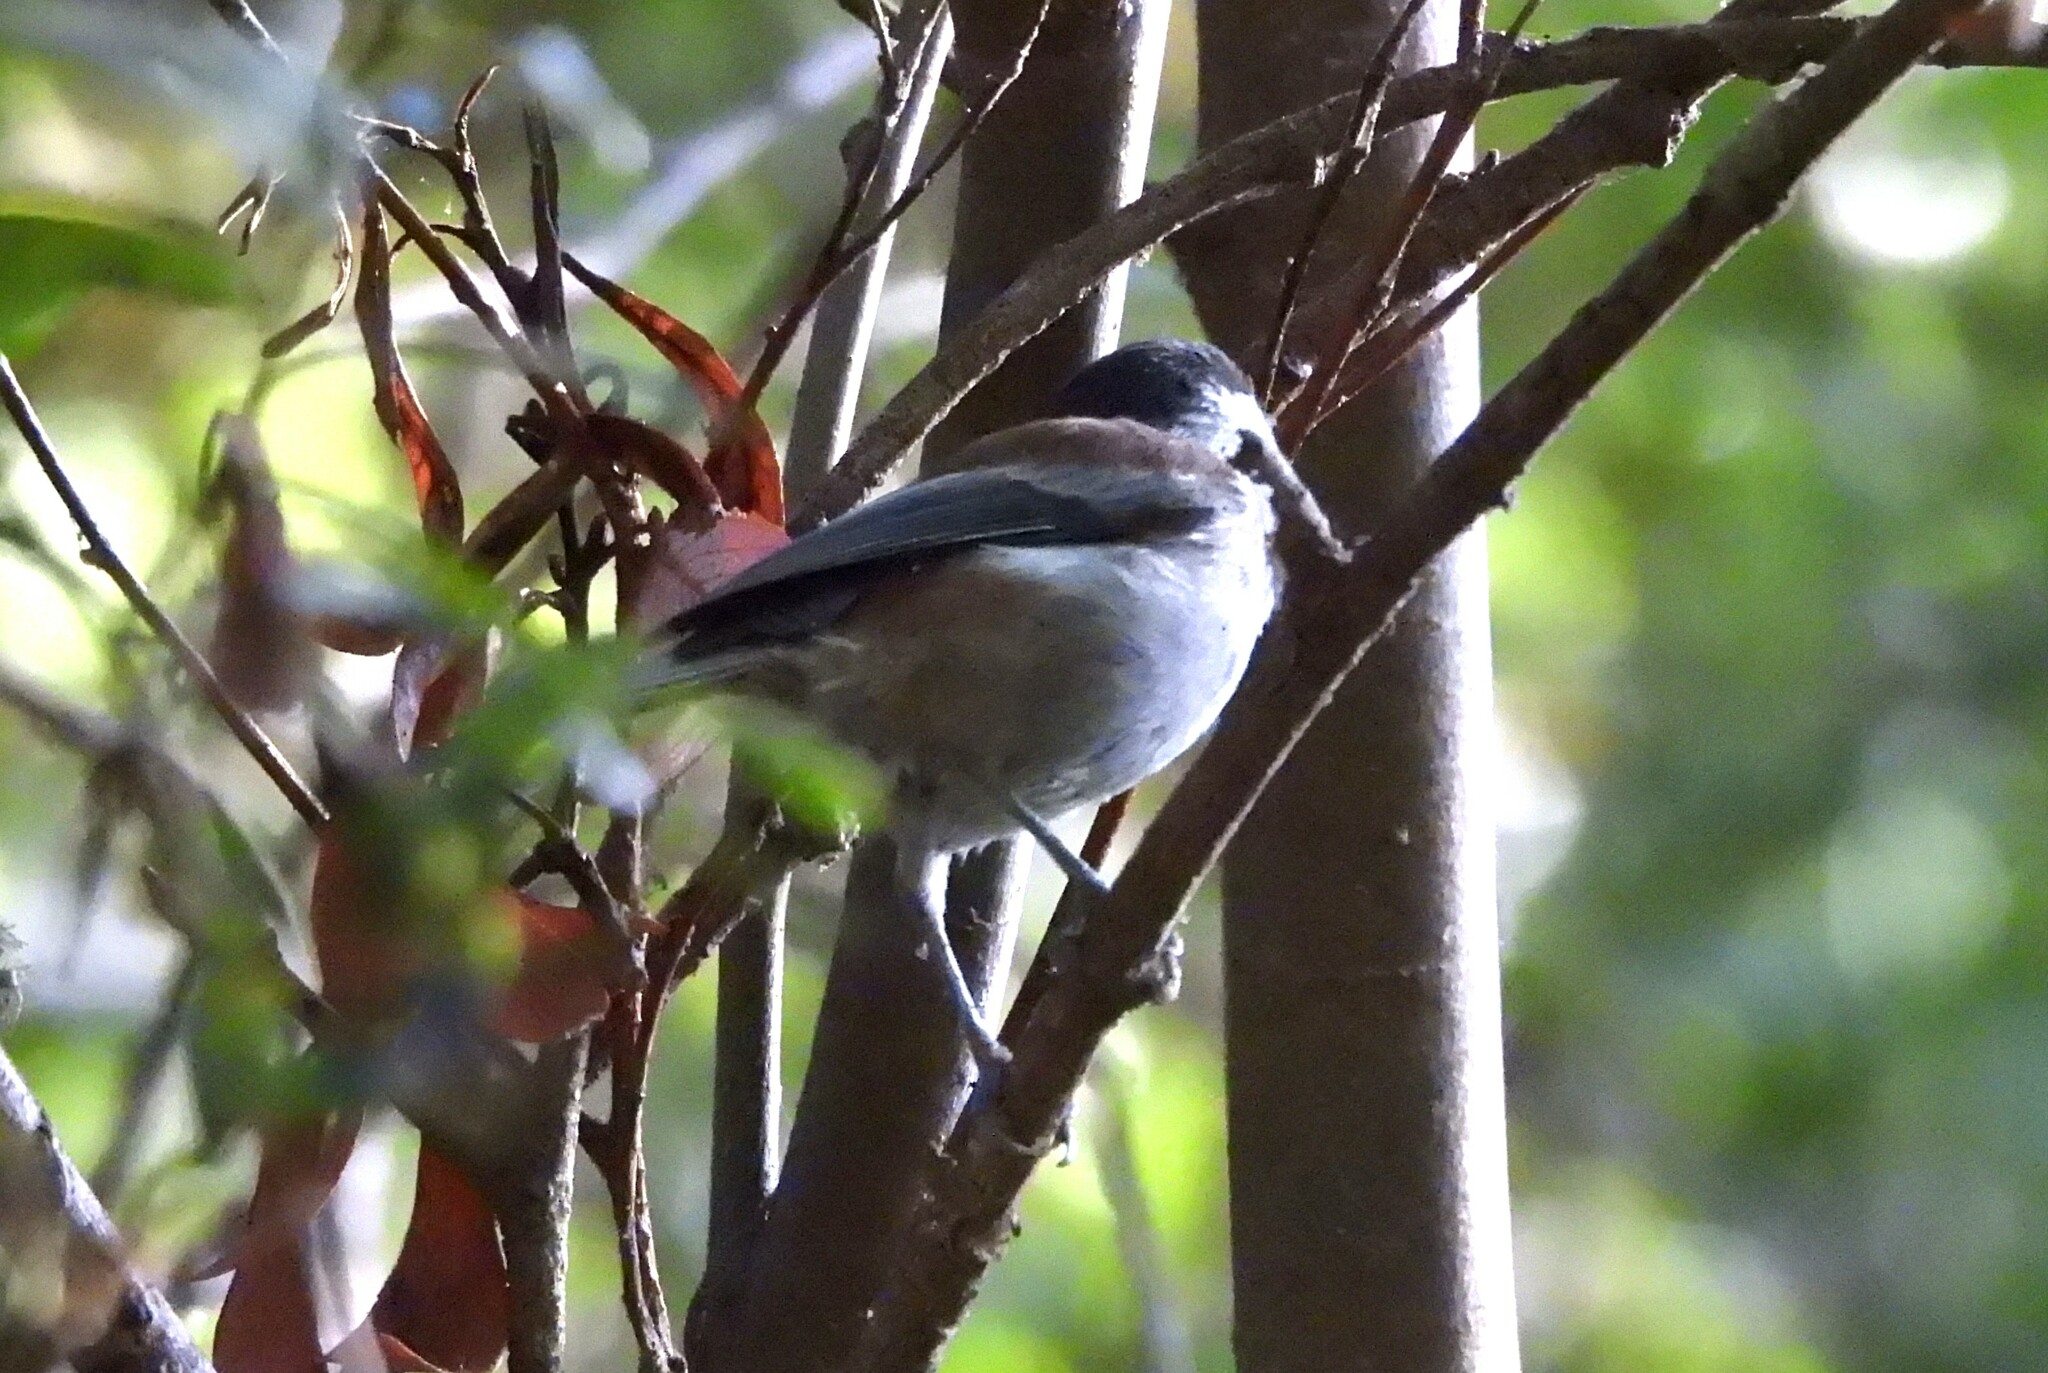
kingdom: Animalia
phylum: Chordata
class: Aves
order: Passeriformes
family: Paridae
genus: Poecile
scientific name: Poecile rufescens
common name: Chestnut-backed chickadee
